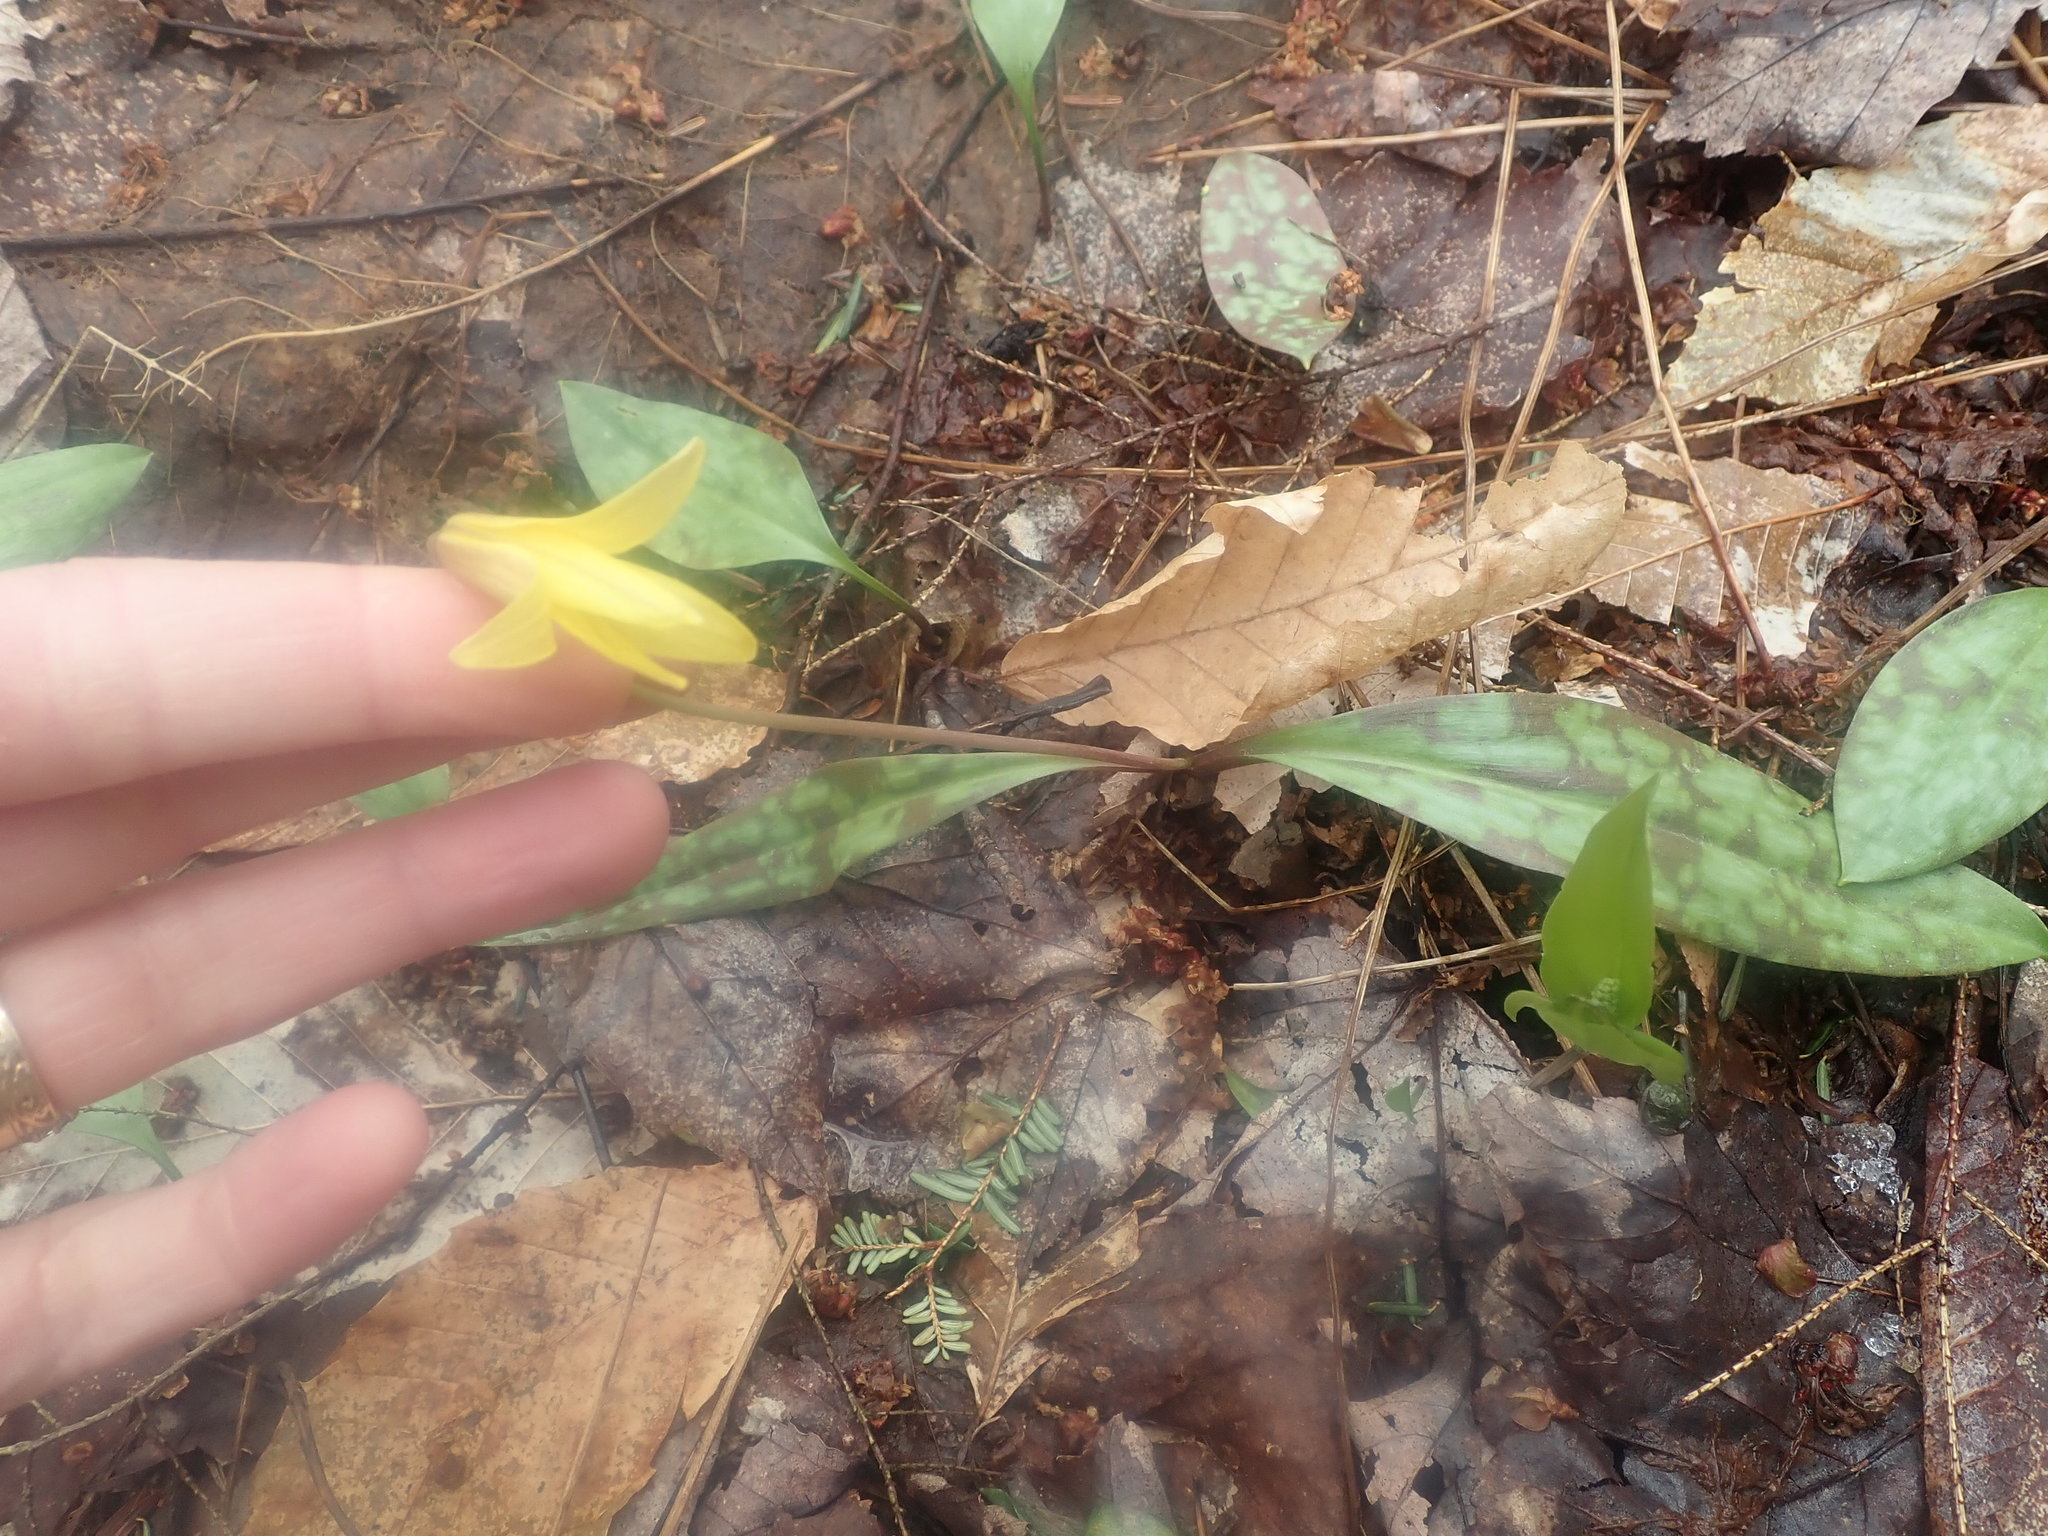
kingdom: Plantae
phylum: Tracheophyta
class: Liliopsida
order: Liliales
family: Liliaceae
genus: Erythronium
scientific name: Erythronium americanum
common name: Yellow adder's-tongue
